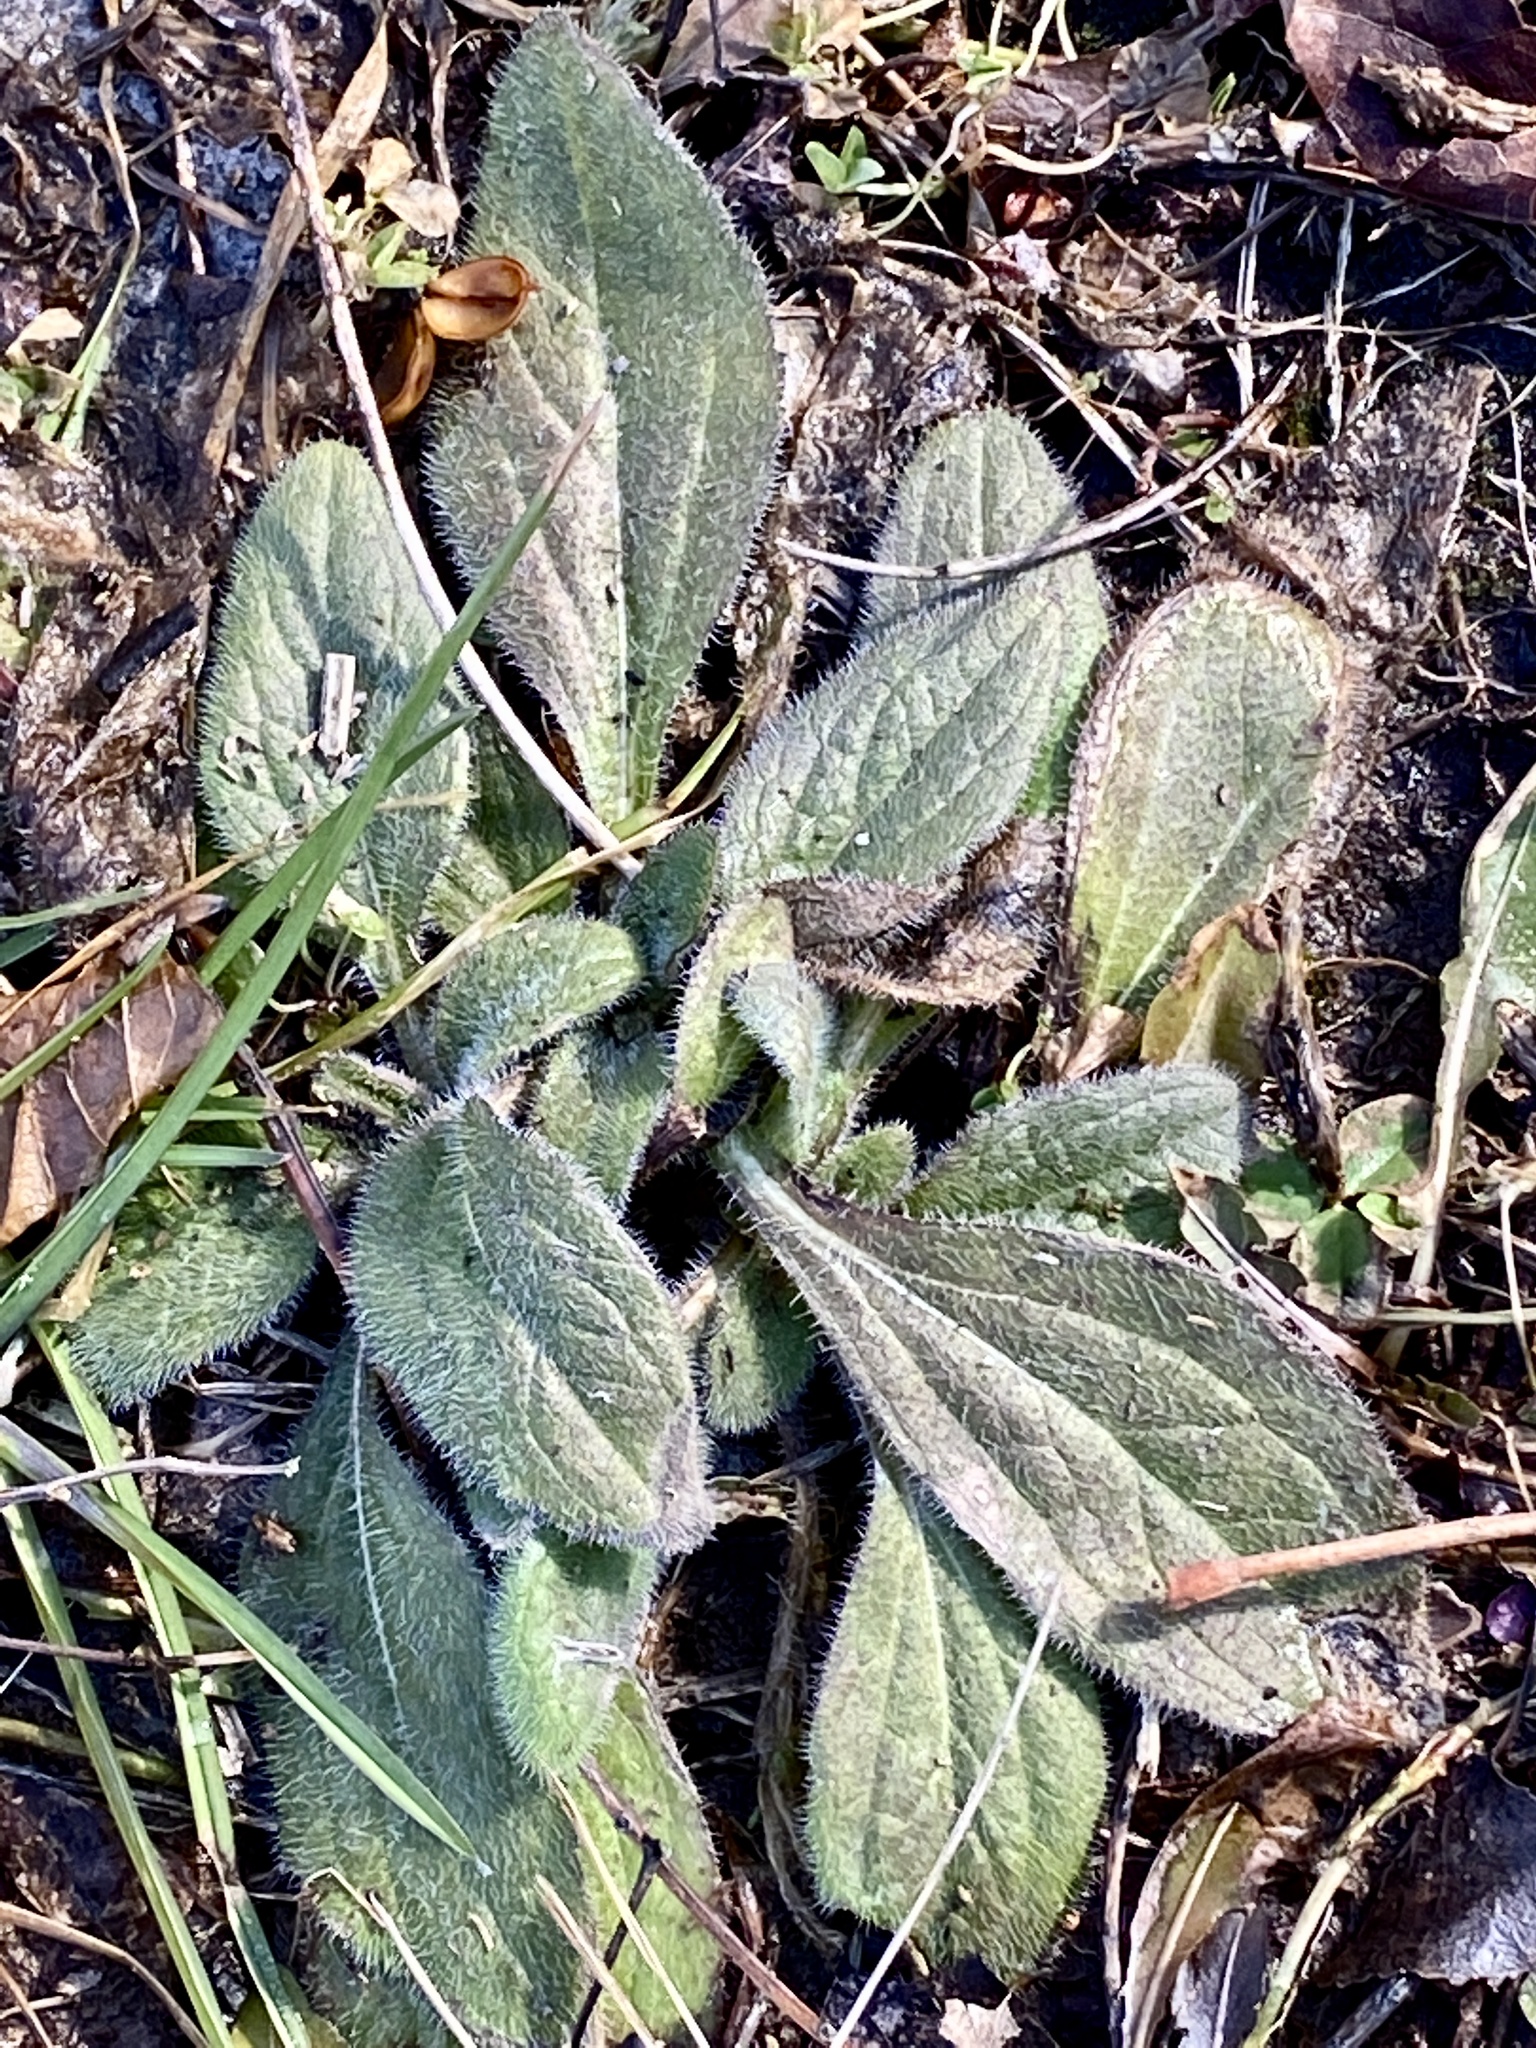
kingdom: Plantae
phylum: Tracheophyta
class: Magnoliopsida
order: Asterales
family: Asteraceae
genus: Rudbeckia
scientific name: Rudbeckia hirta
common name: Black-eyed-susan
